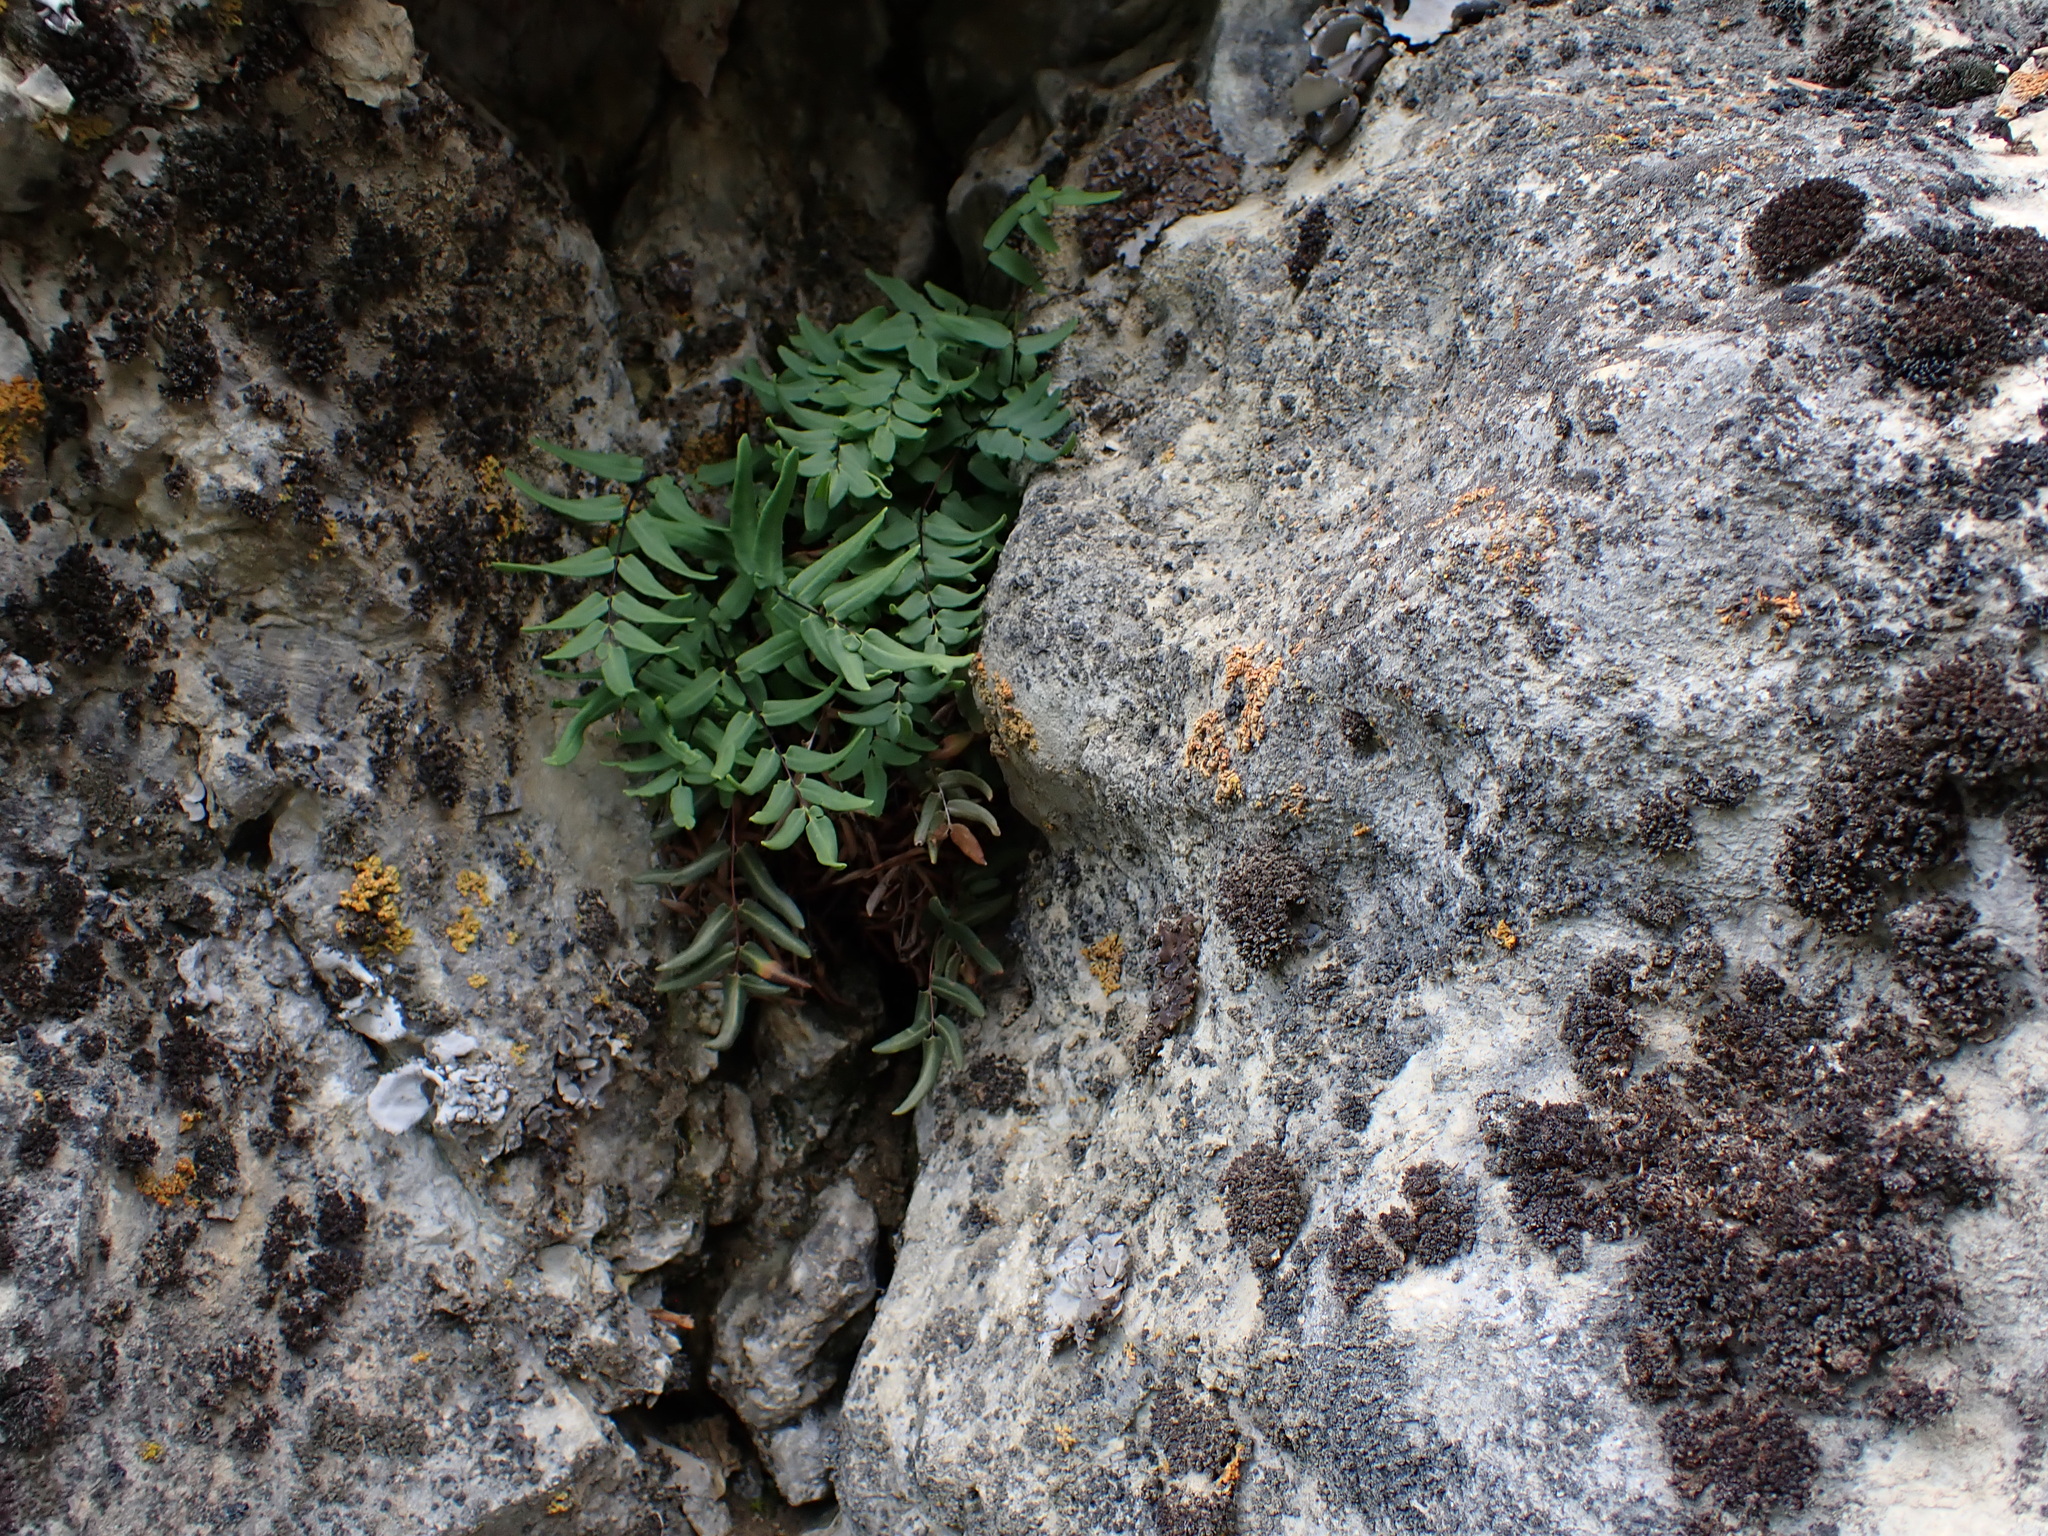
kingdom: Plantae
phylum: Tracheophyta
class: Polypodiopsida
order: Polypodiales
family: Pteridaceae
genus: Pellaea
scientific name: Pellaea glabella
